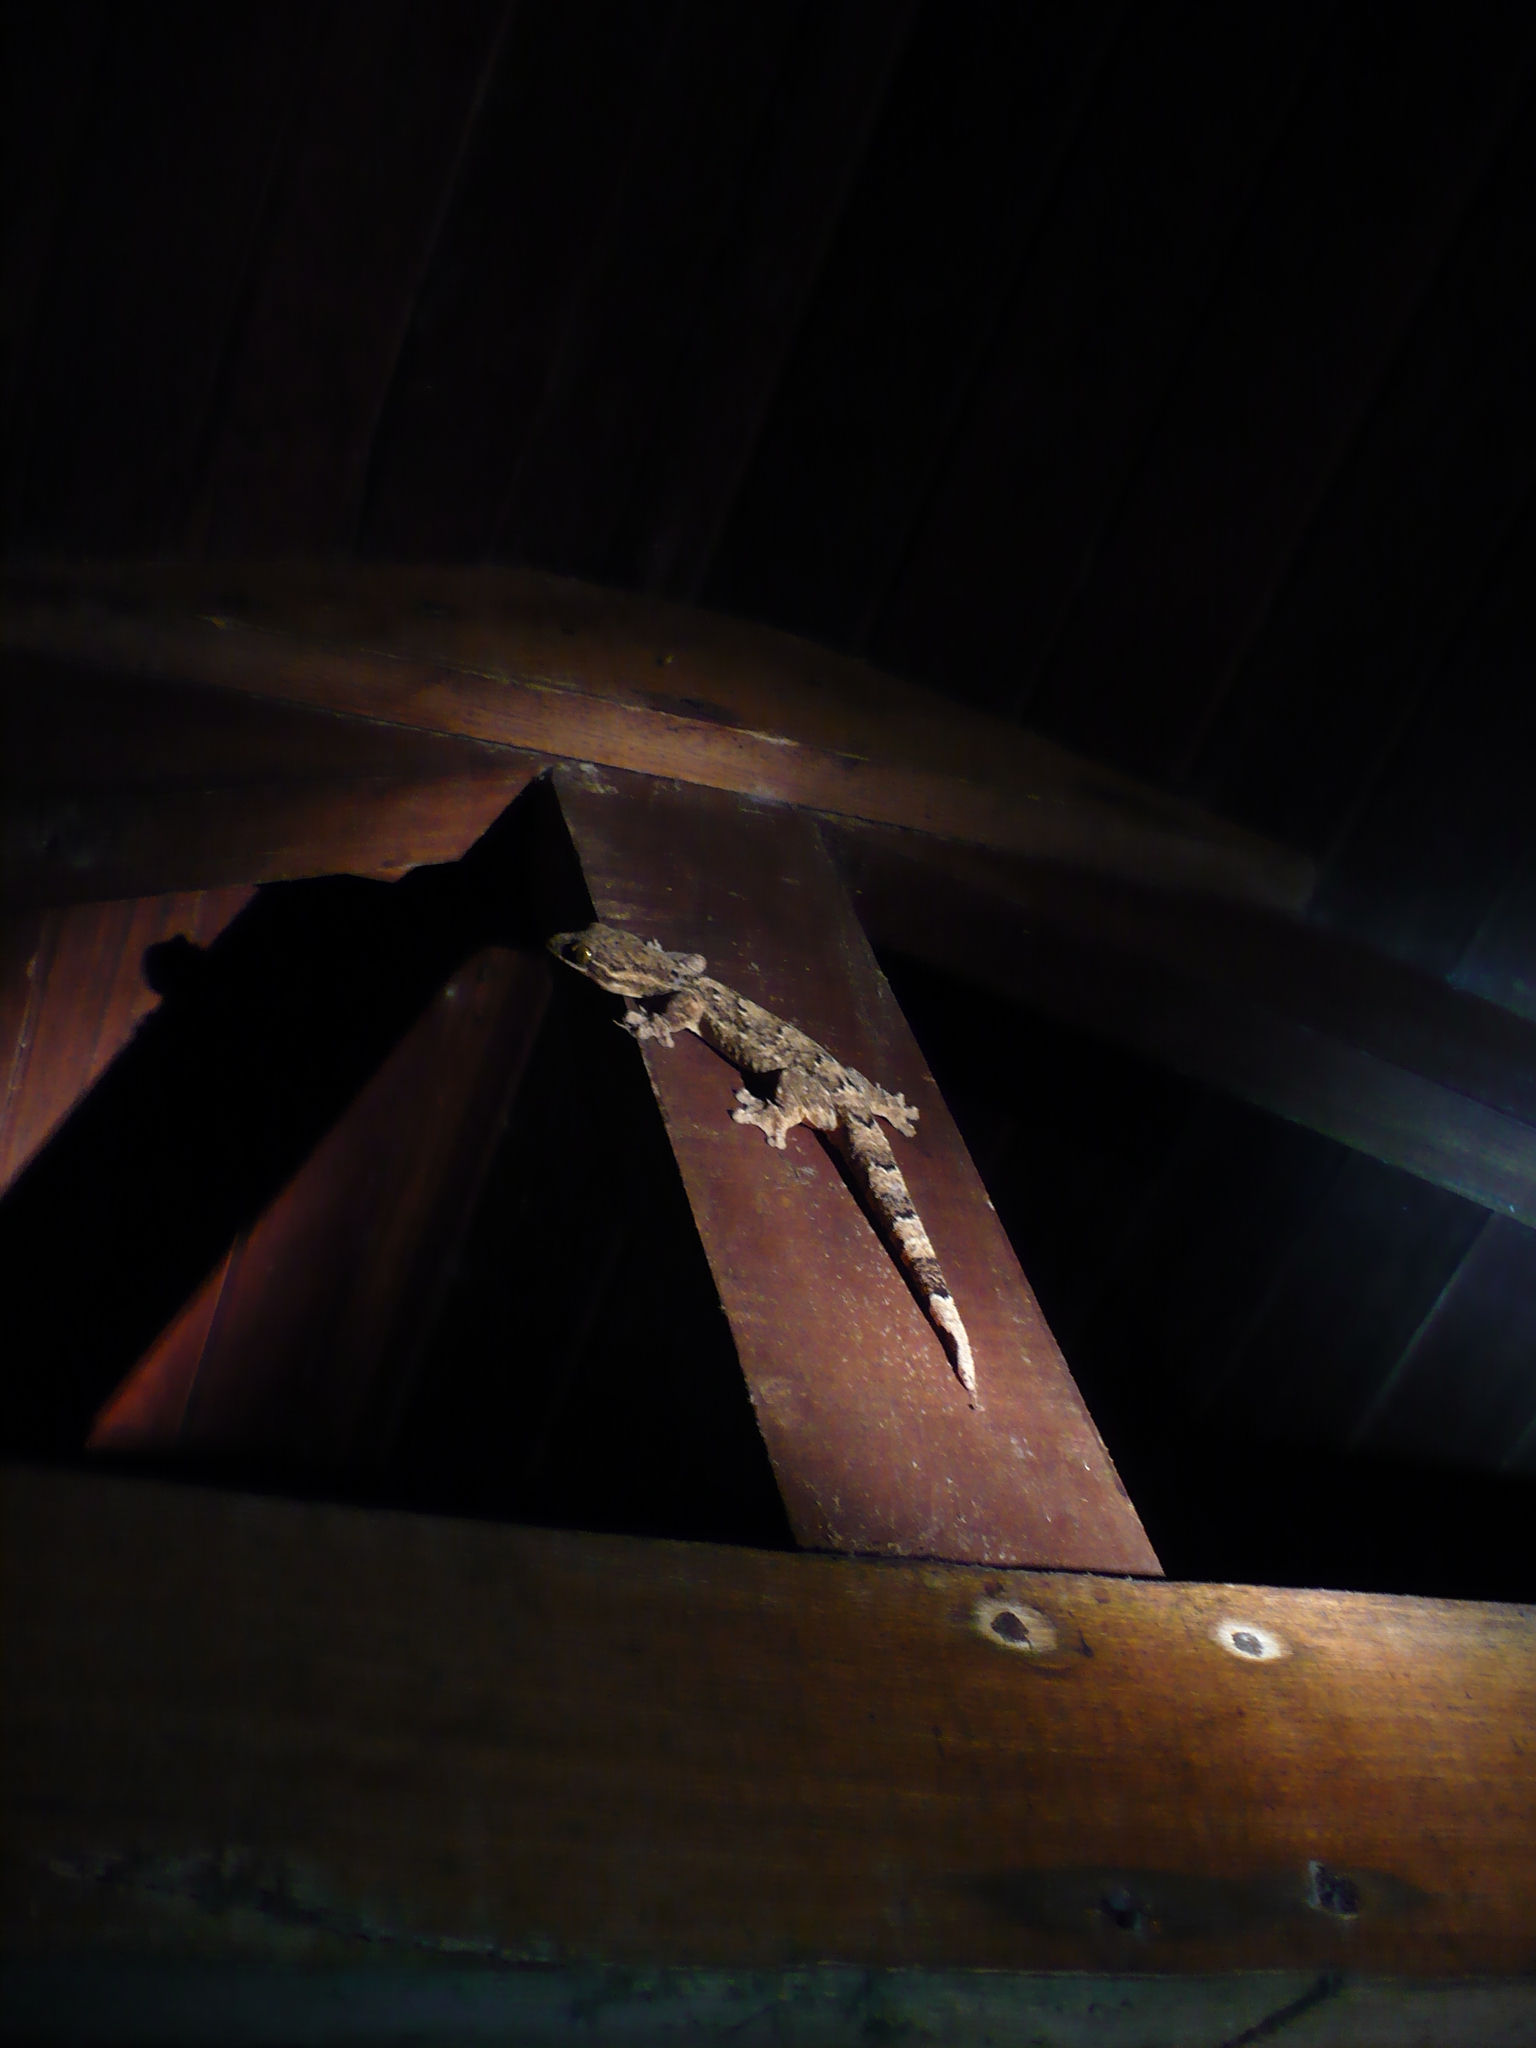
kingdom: Animalia
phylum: Chordata
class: Squamata
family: Phyllodactylidae
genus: Thecadactylus
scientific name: Thecadactylus rapicauda
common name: Turnip-tailed gecko
